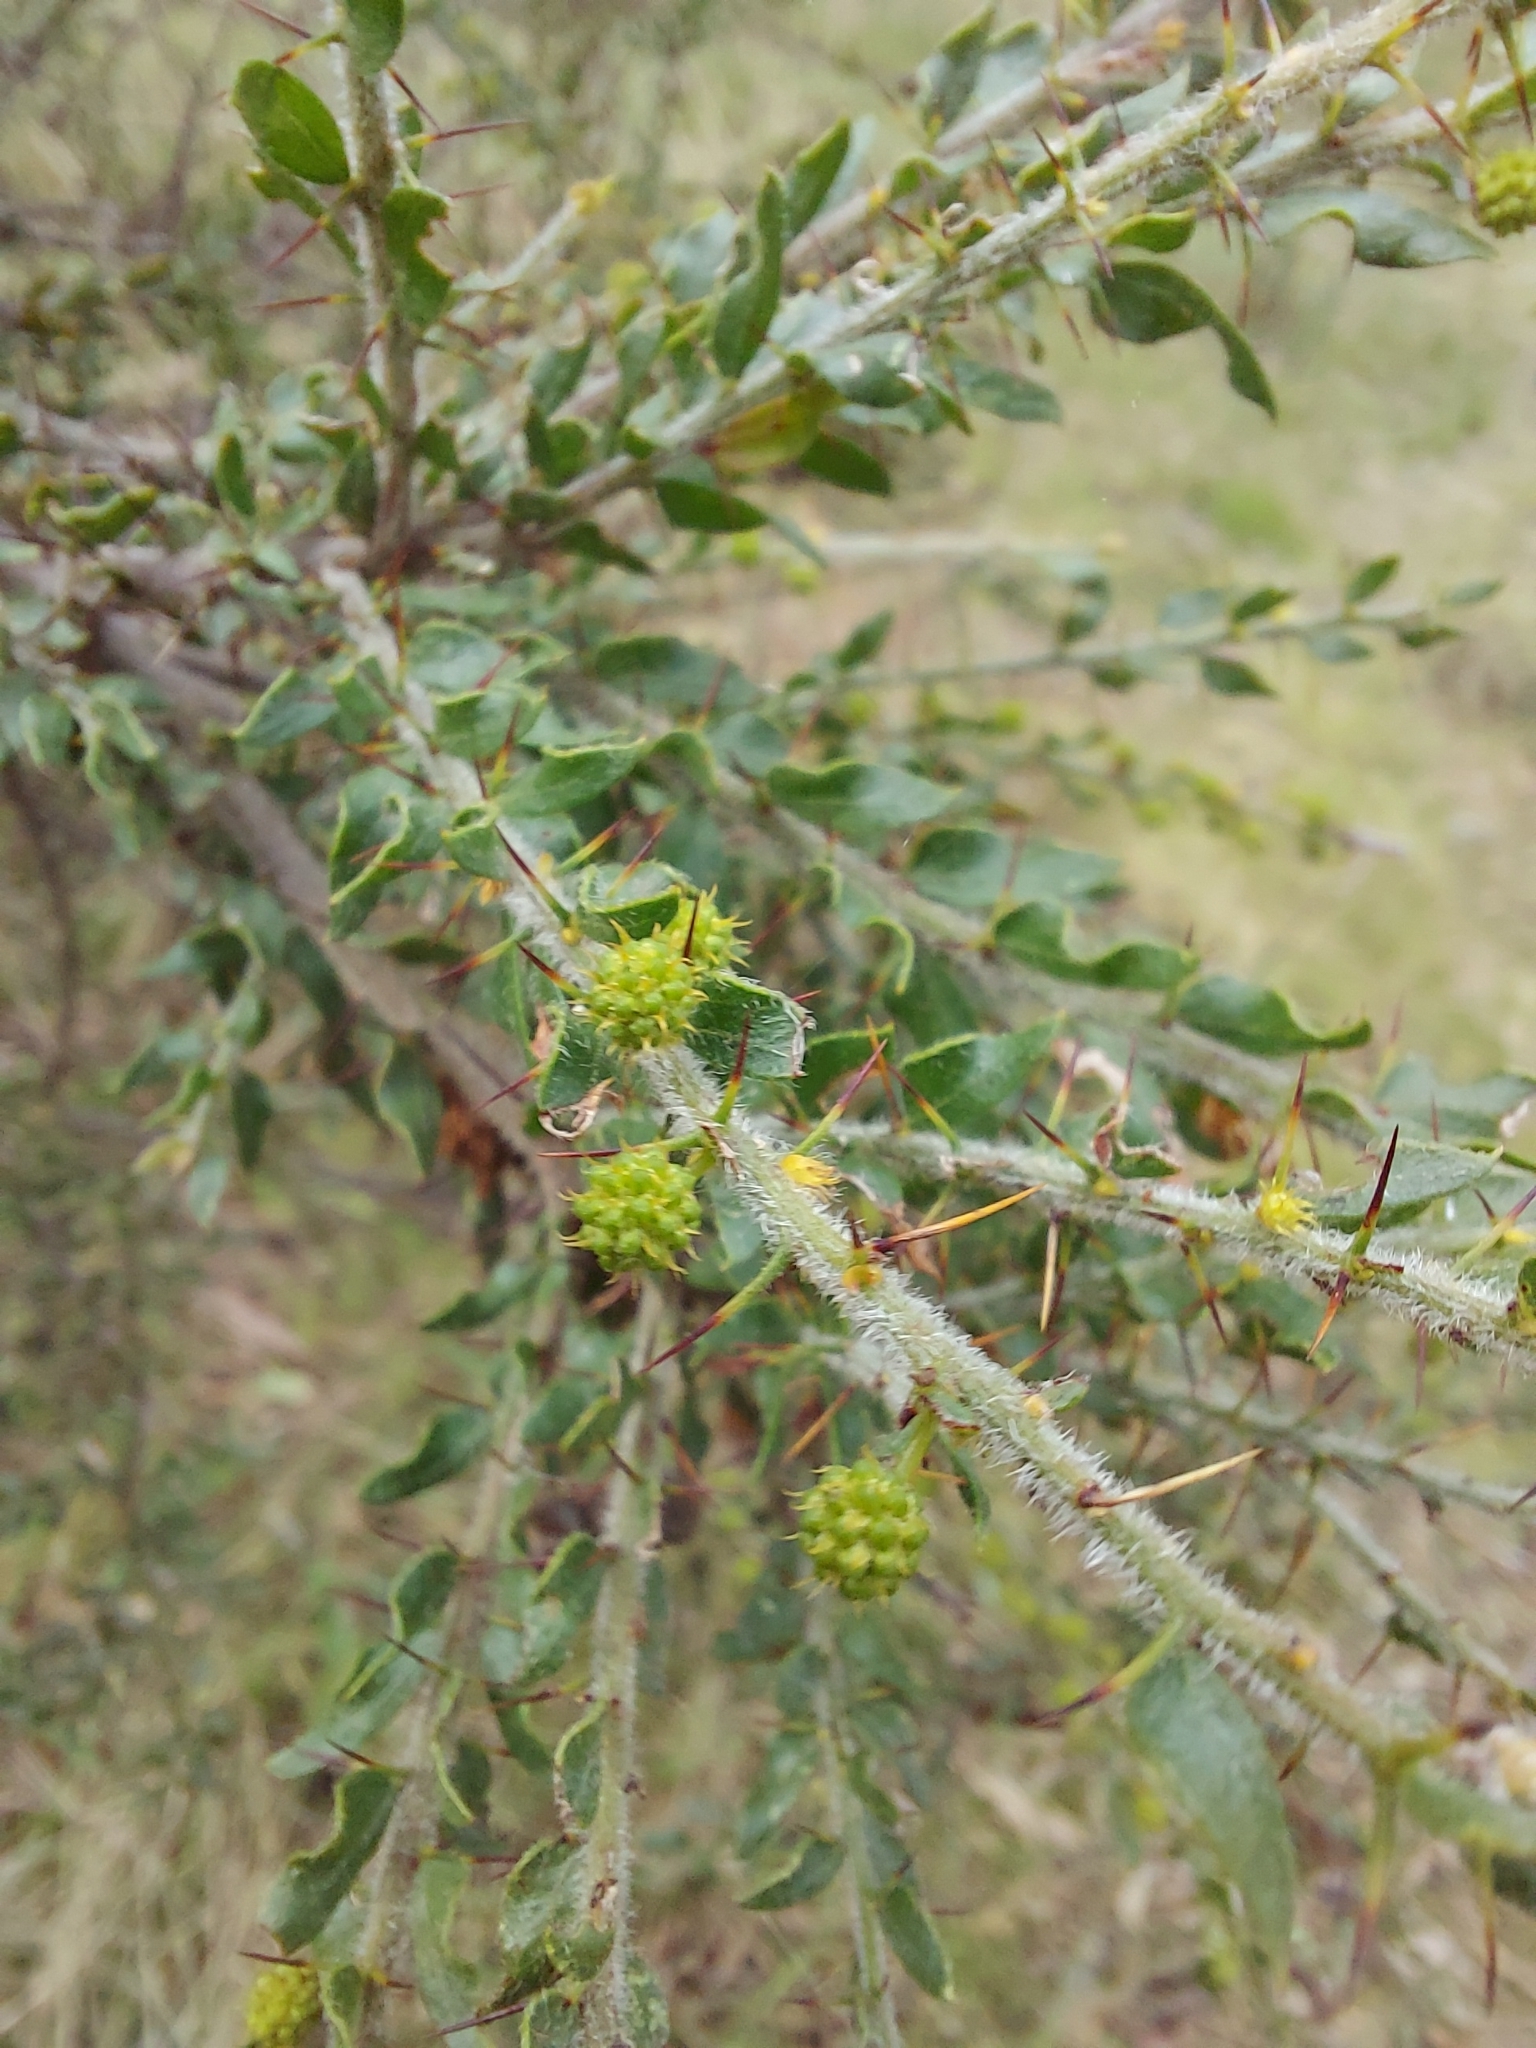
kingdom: Plantae
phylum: Tracheophyta
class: Magnoliopsida
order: Fabales
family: Fabaceae
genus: Acacia
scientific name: Acacia paradoxa
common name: Paradox acacia
